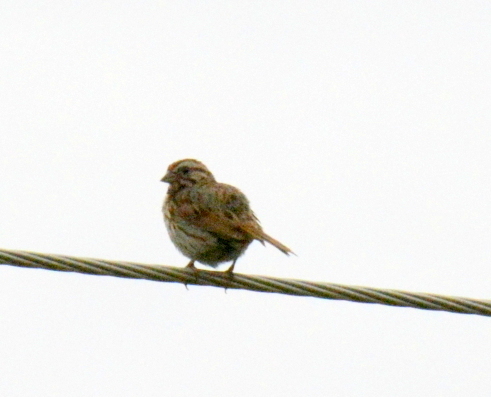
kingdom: Animalia
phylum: Chordata
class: Aves
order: Passeriformes
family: Passerellidae
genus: Melospiza
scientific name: Melospiza melodia
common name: Song sparrow
